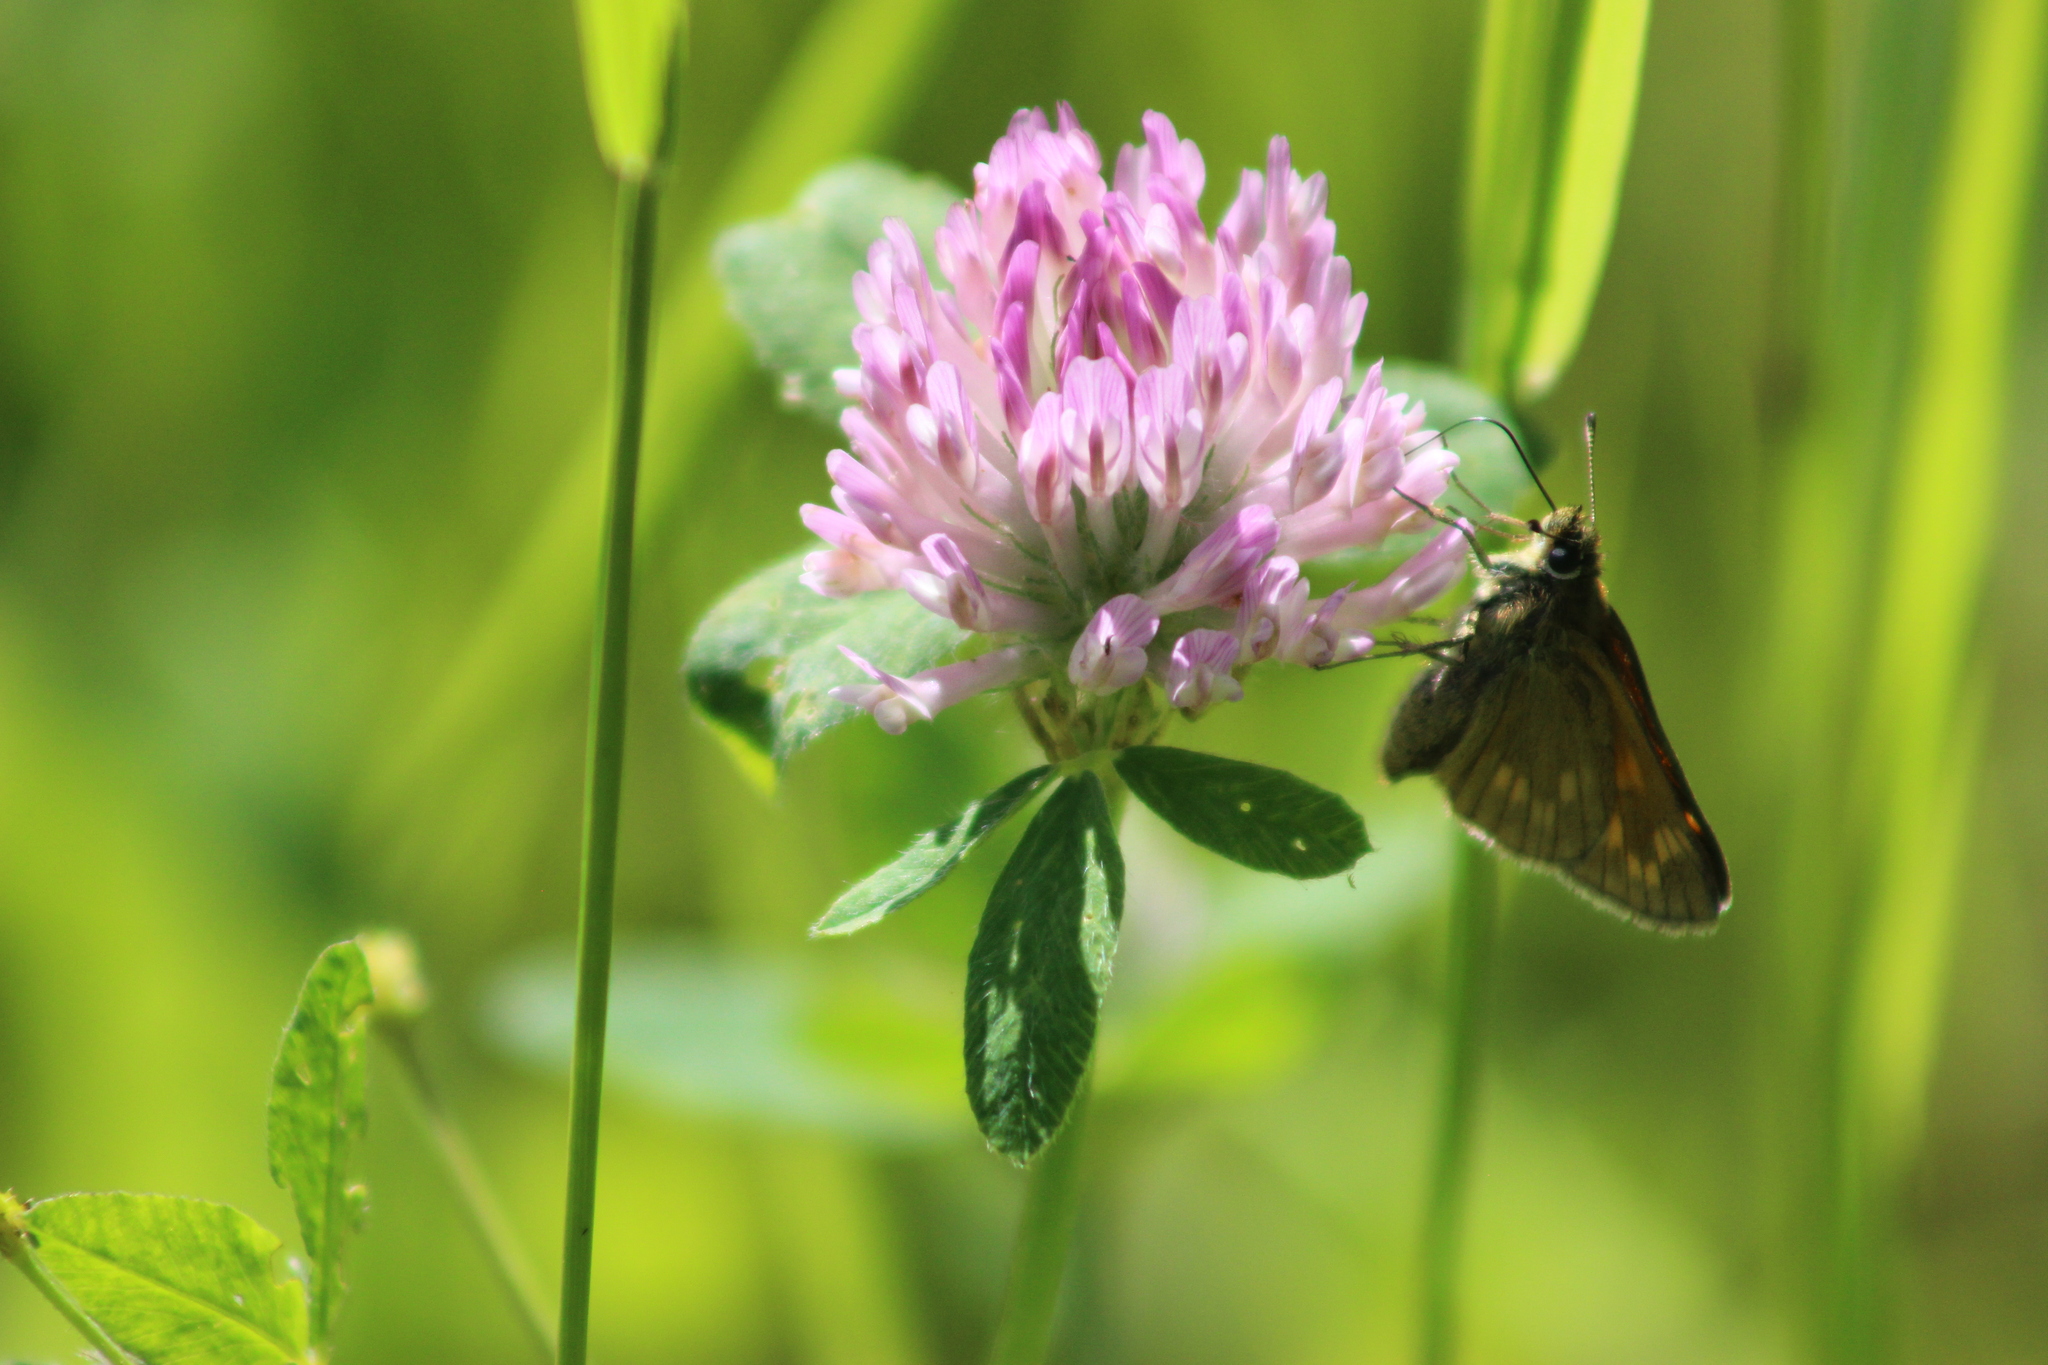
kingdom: Animalia
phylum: Arthropoda
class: Insecta
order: Lepidoptera
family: Hesperiidae
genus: Ochlodes
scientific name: Ochlodes venata
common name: Large skipper
